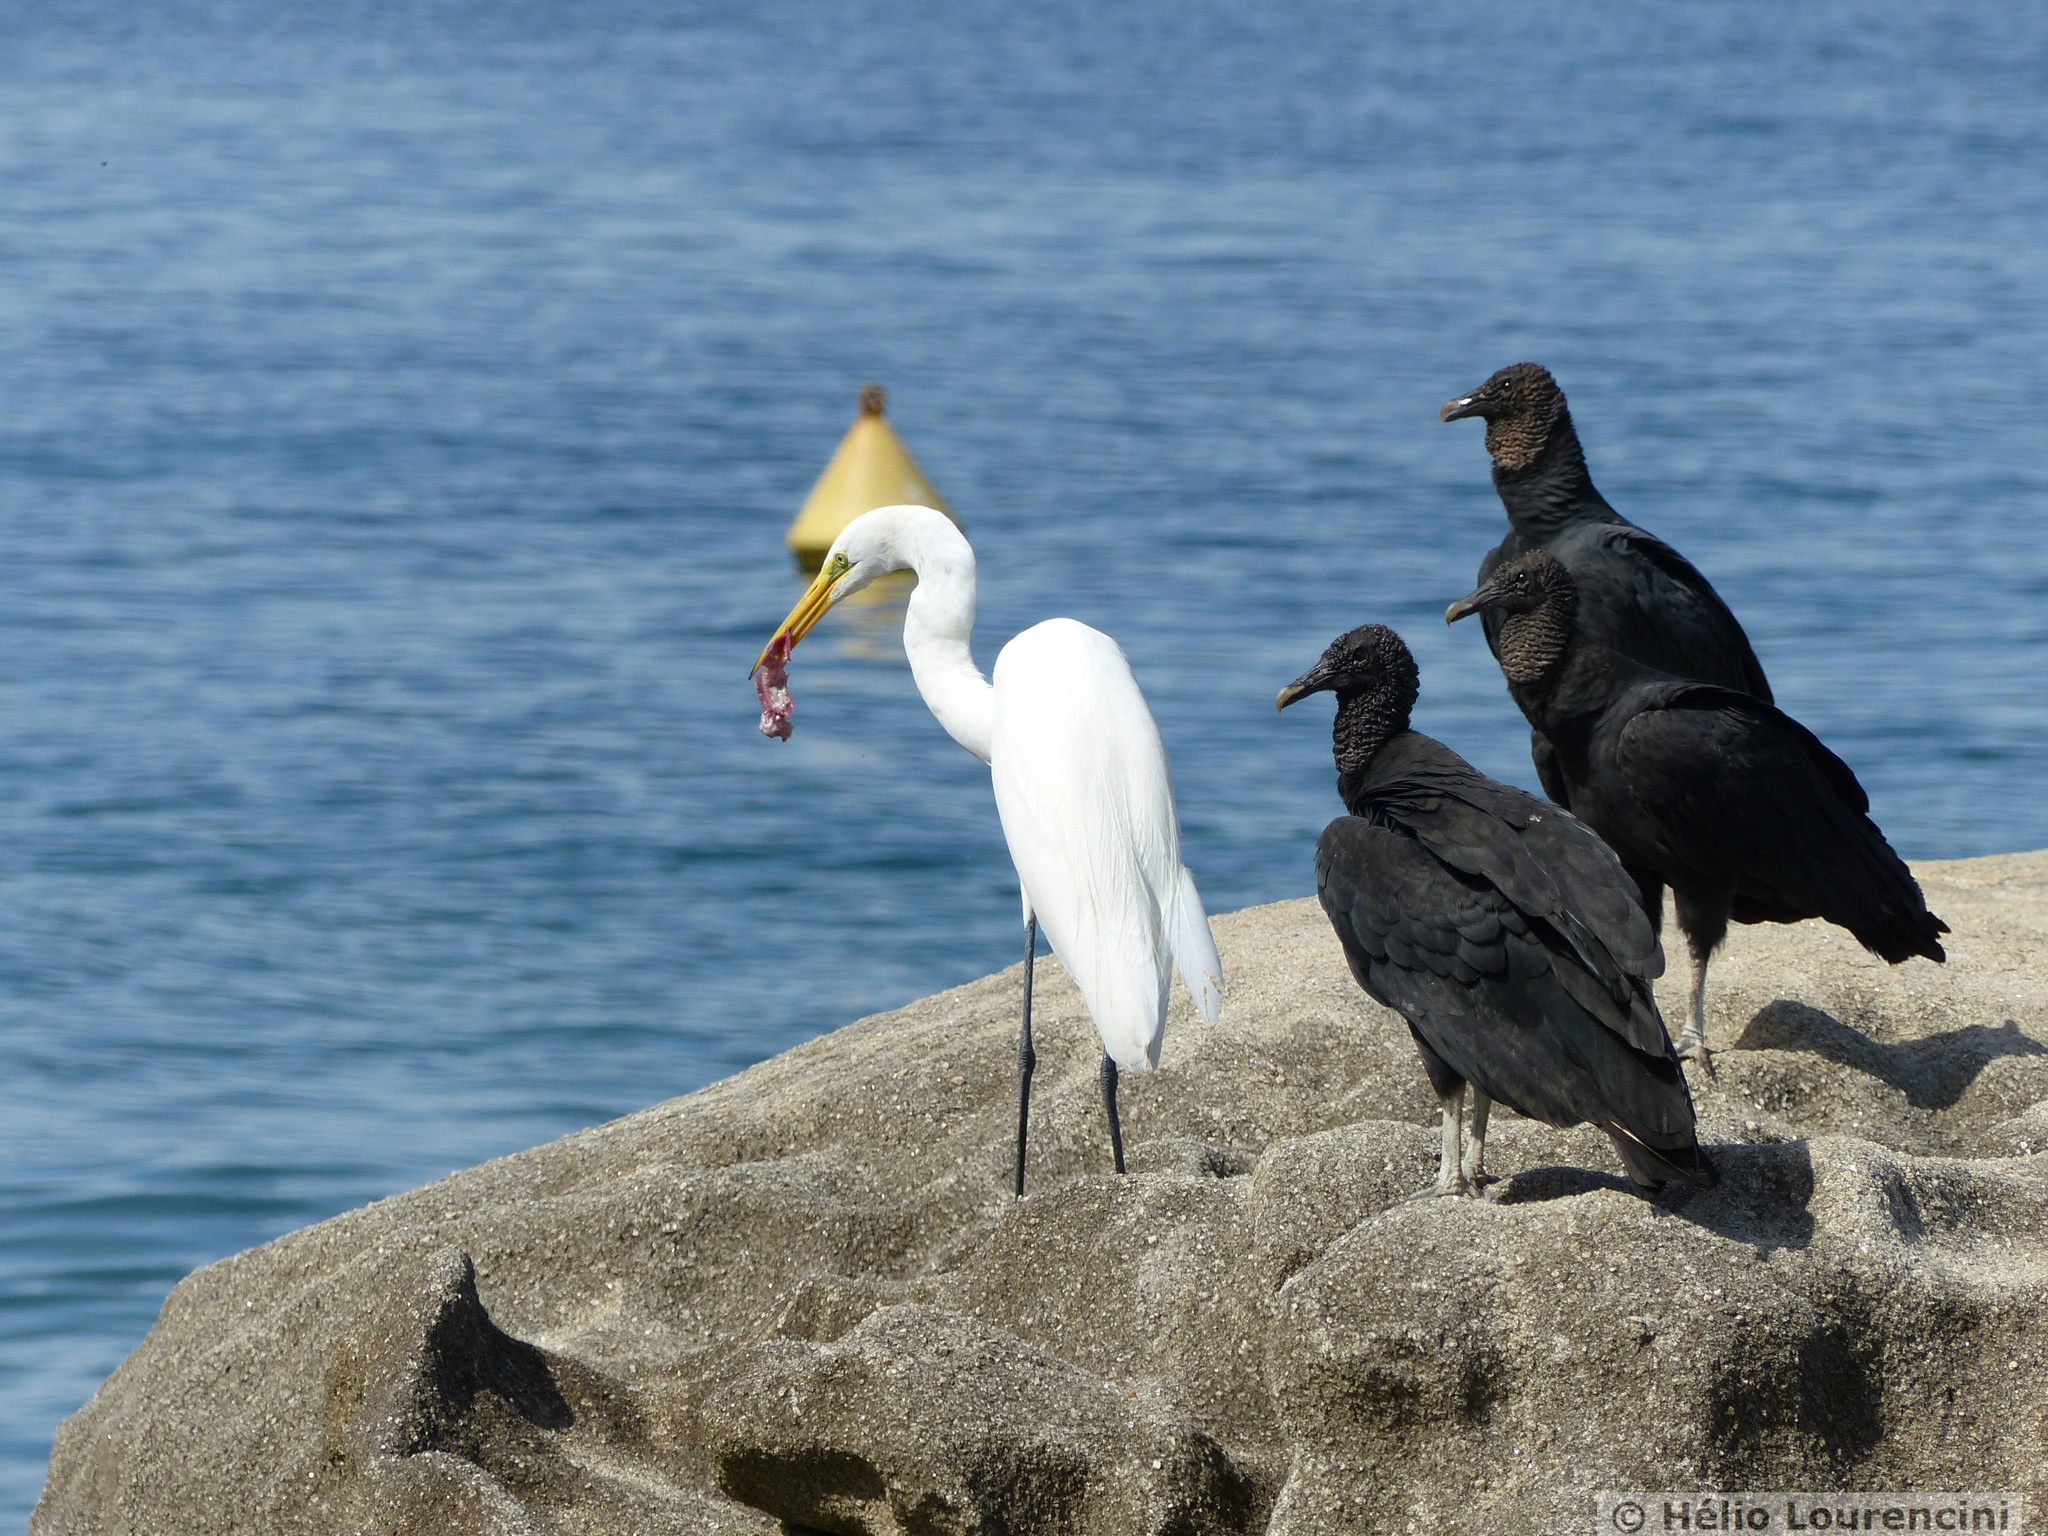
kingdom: Animalia
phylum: Chordata
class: Aves
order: Pelecaniformes
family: Ardeidae
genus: Ardea
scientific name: Ardea alba
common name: Great egret
